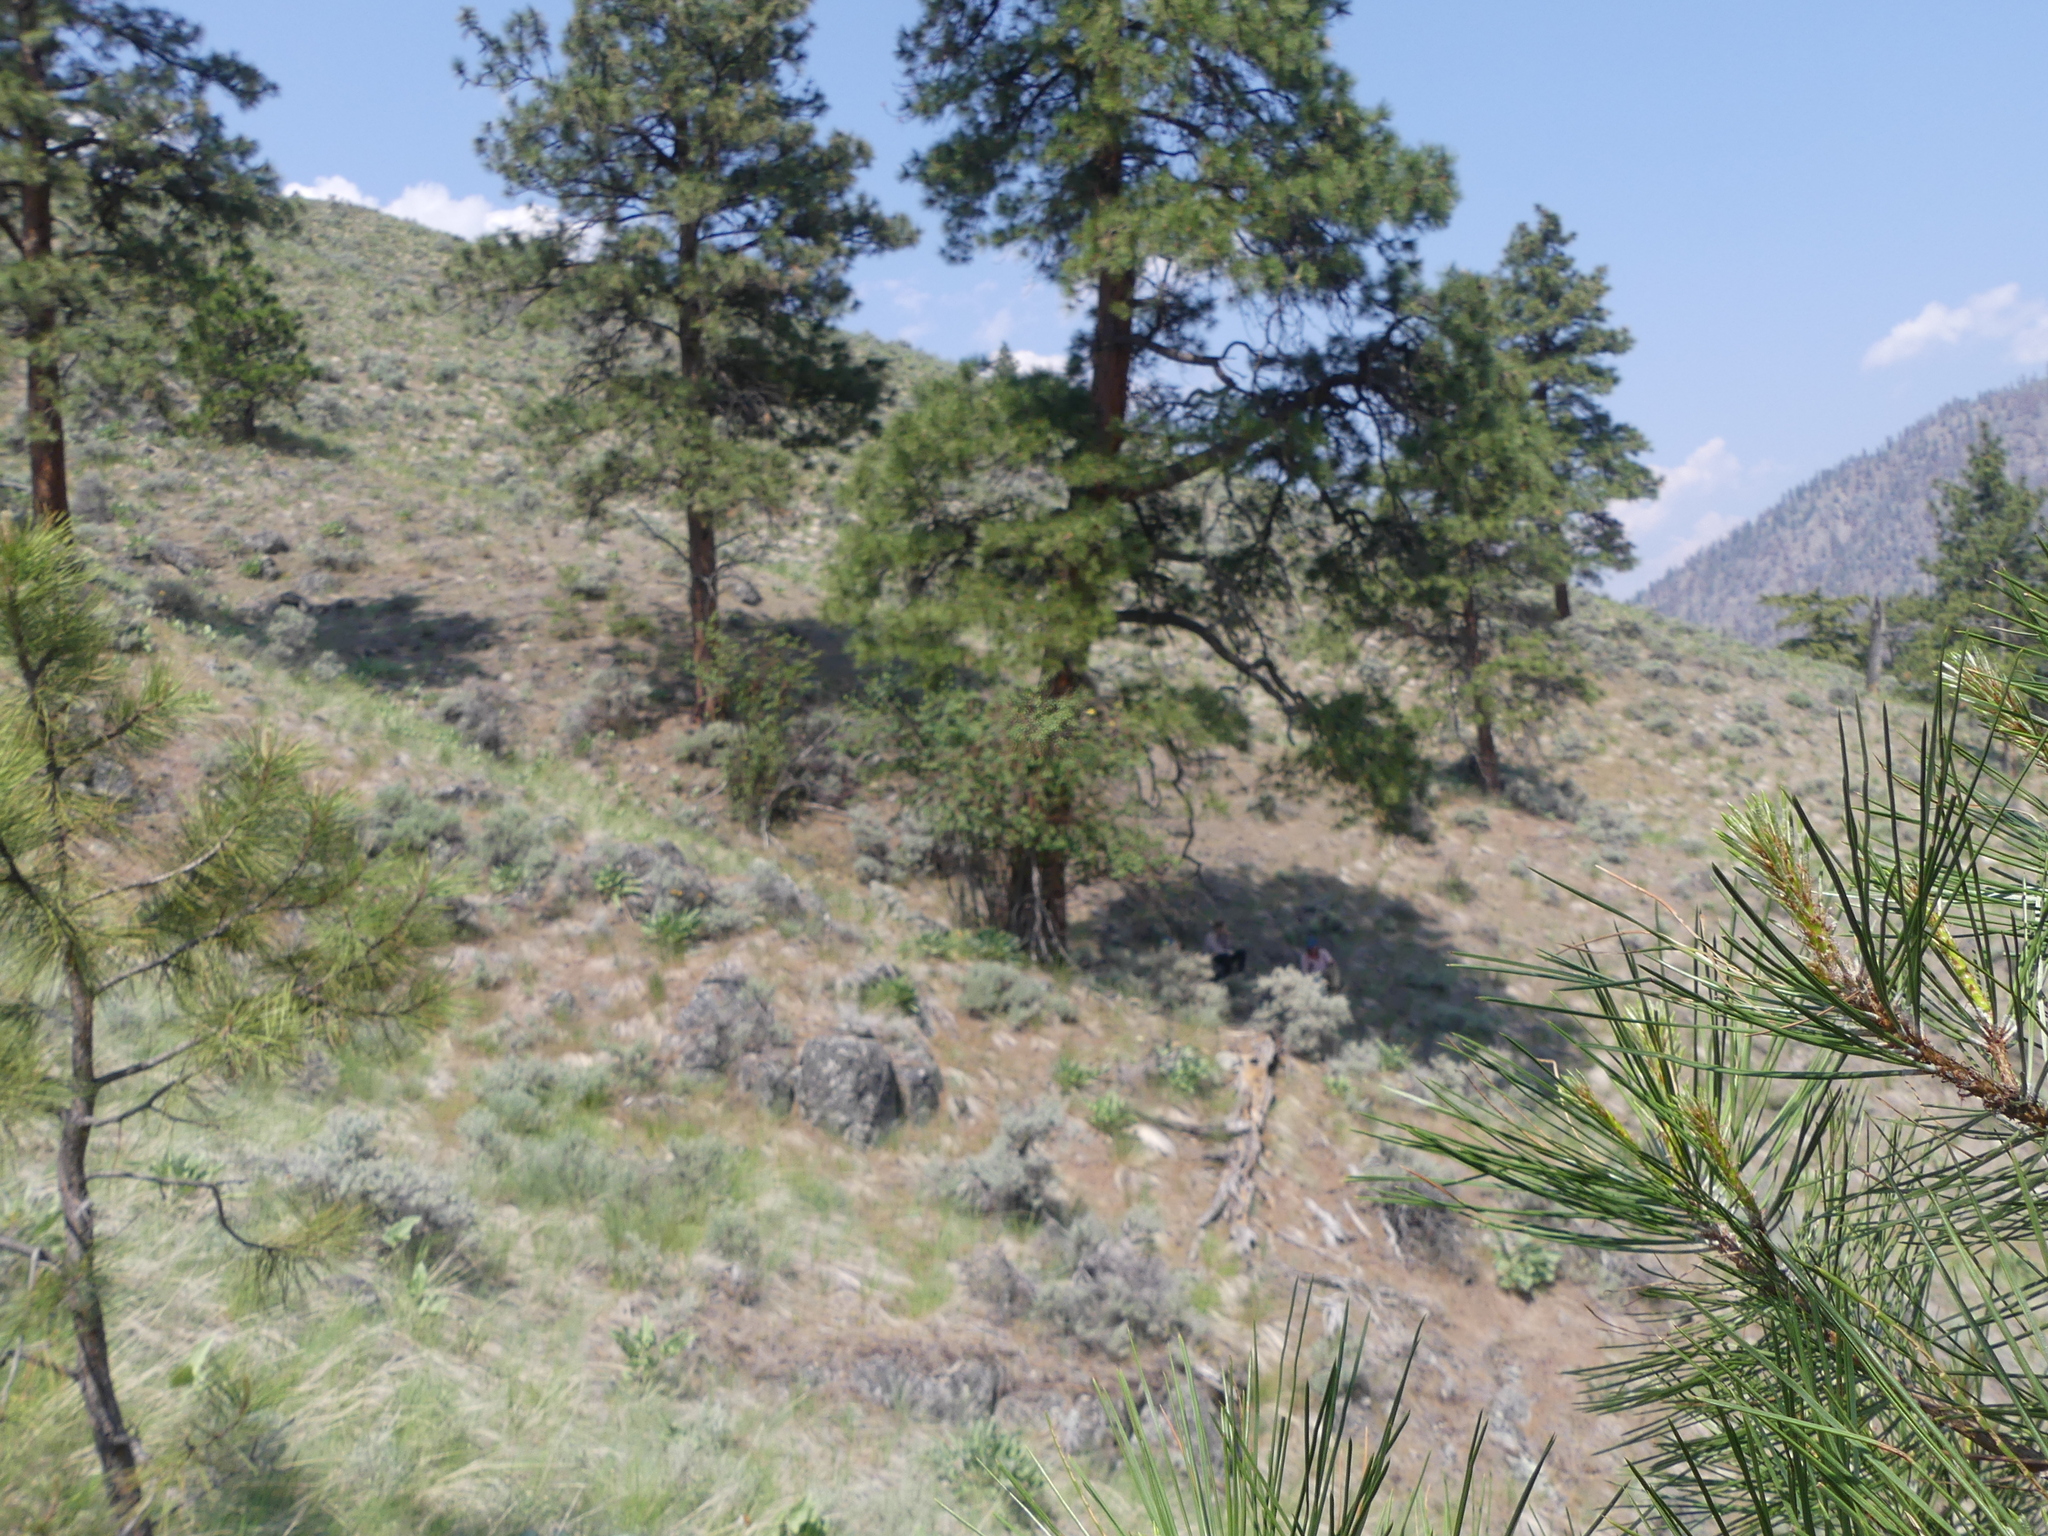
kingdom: Plantae
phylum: Tracheophyta
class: Pinopsida
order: Pinales
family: Pinaceae
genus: Pinus
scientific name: Pinus ponderosa
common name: Western yellow-pine
